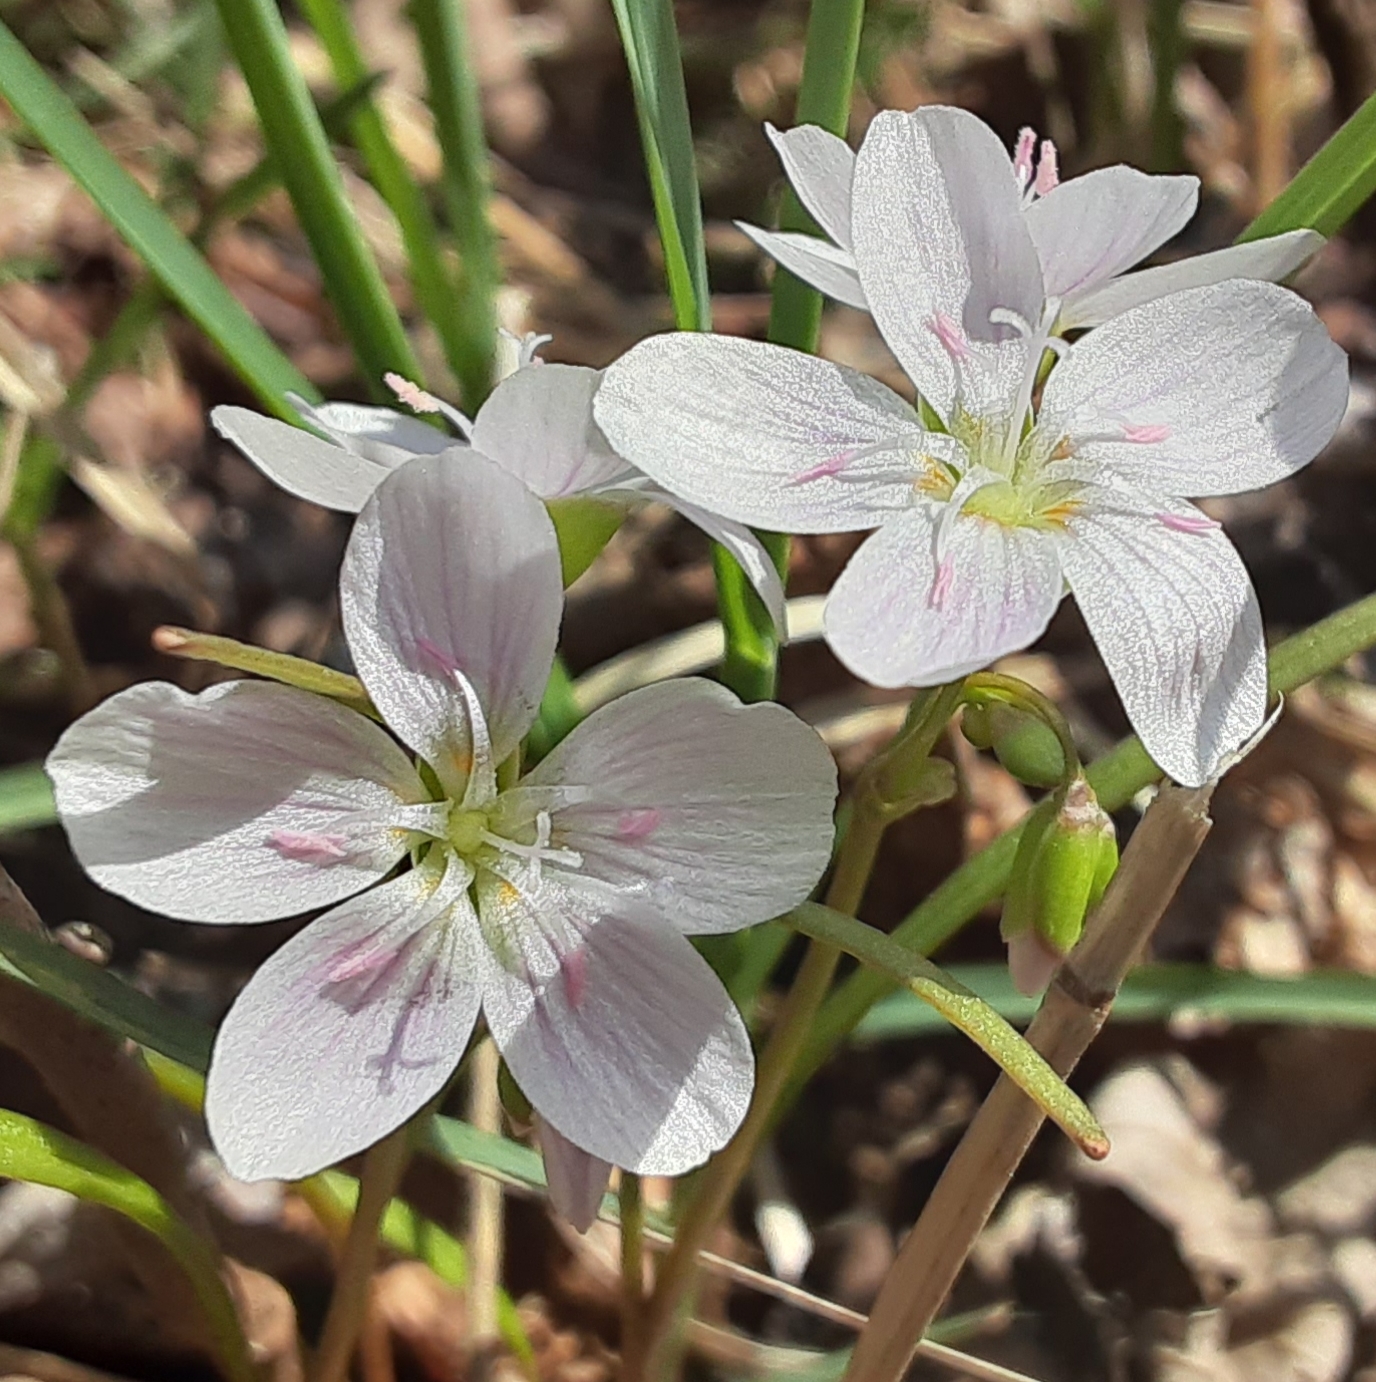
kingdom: Plantae
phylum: Tracheophyta
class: Magnoliopsida
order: Caryophyllales
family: Montiaceae
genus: Claytonia
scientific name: Claytonia virginica
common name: Virginia springbeauty
